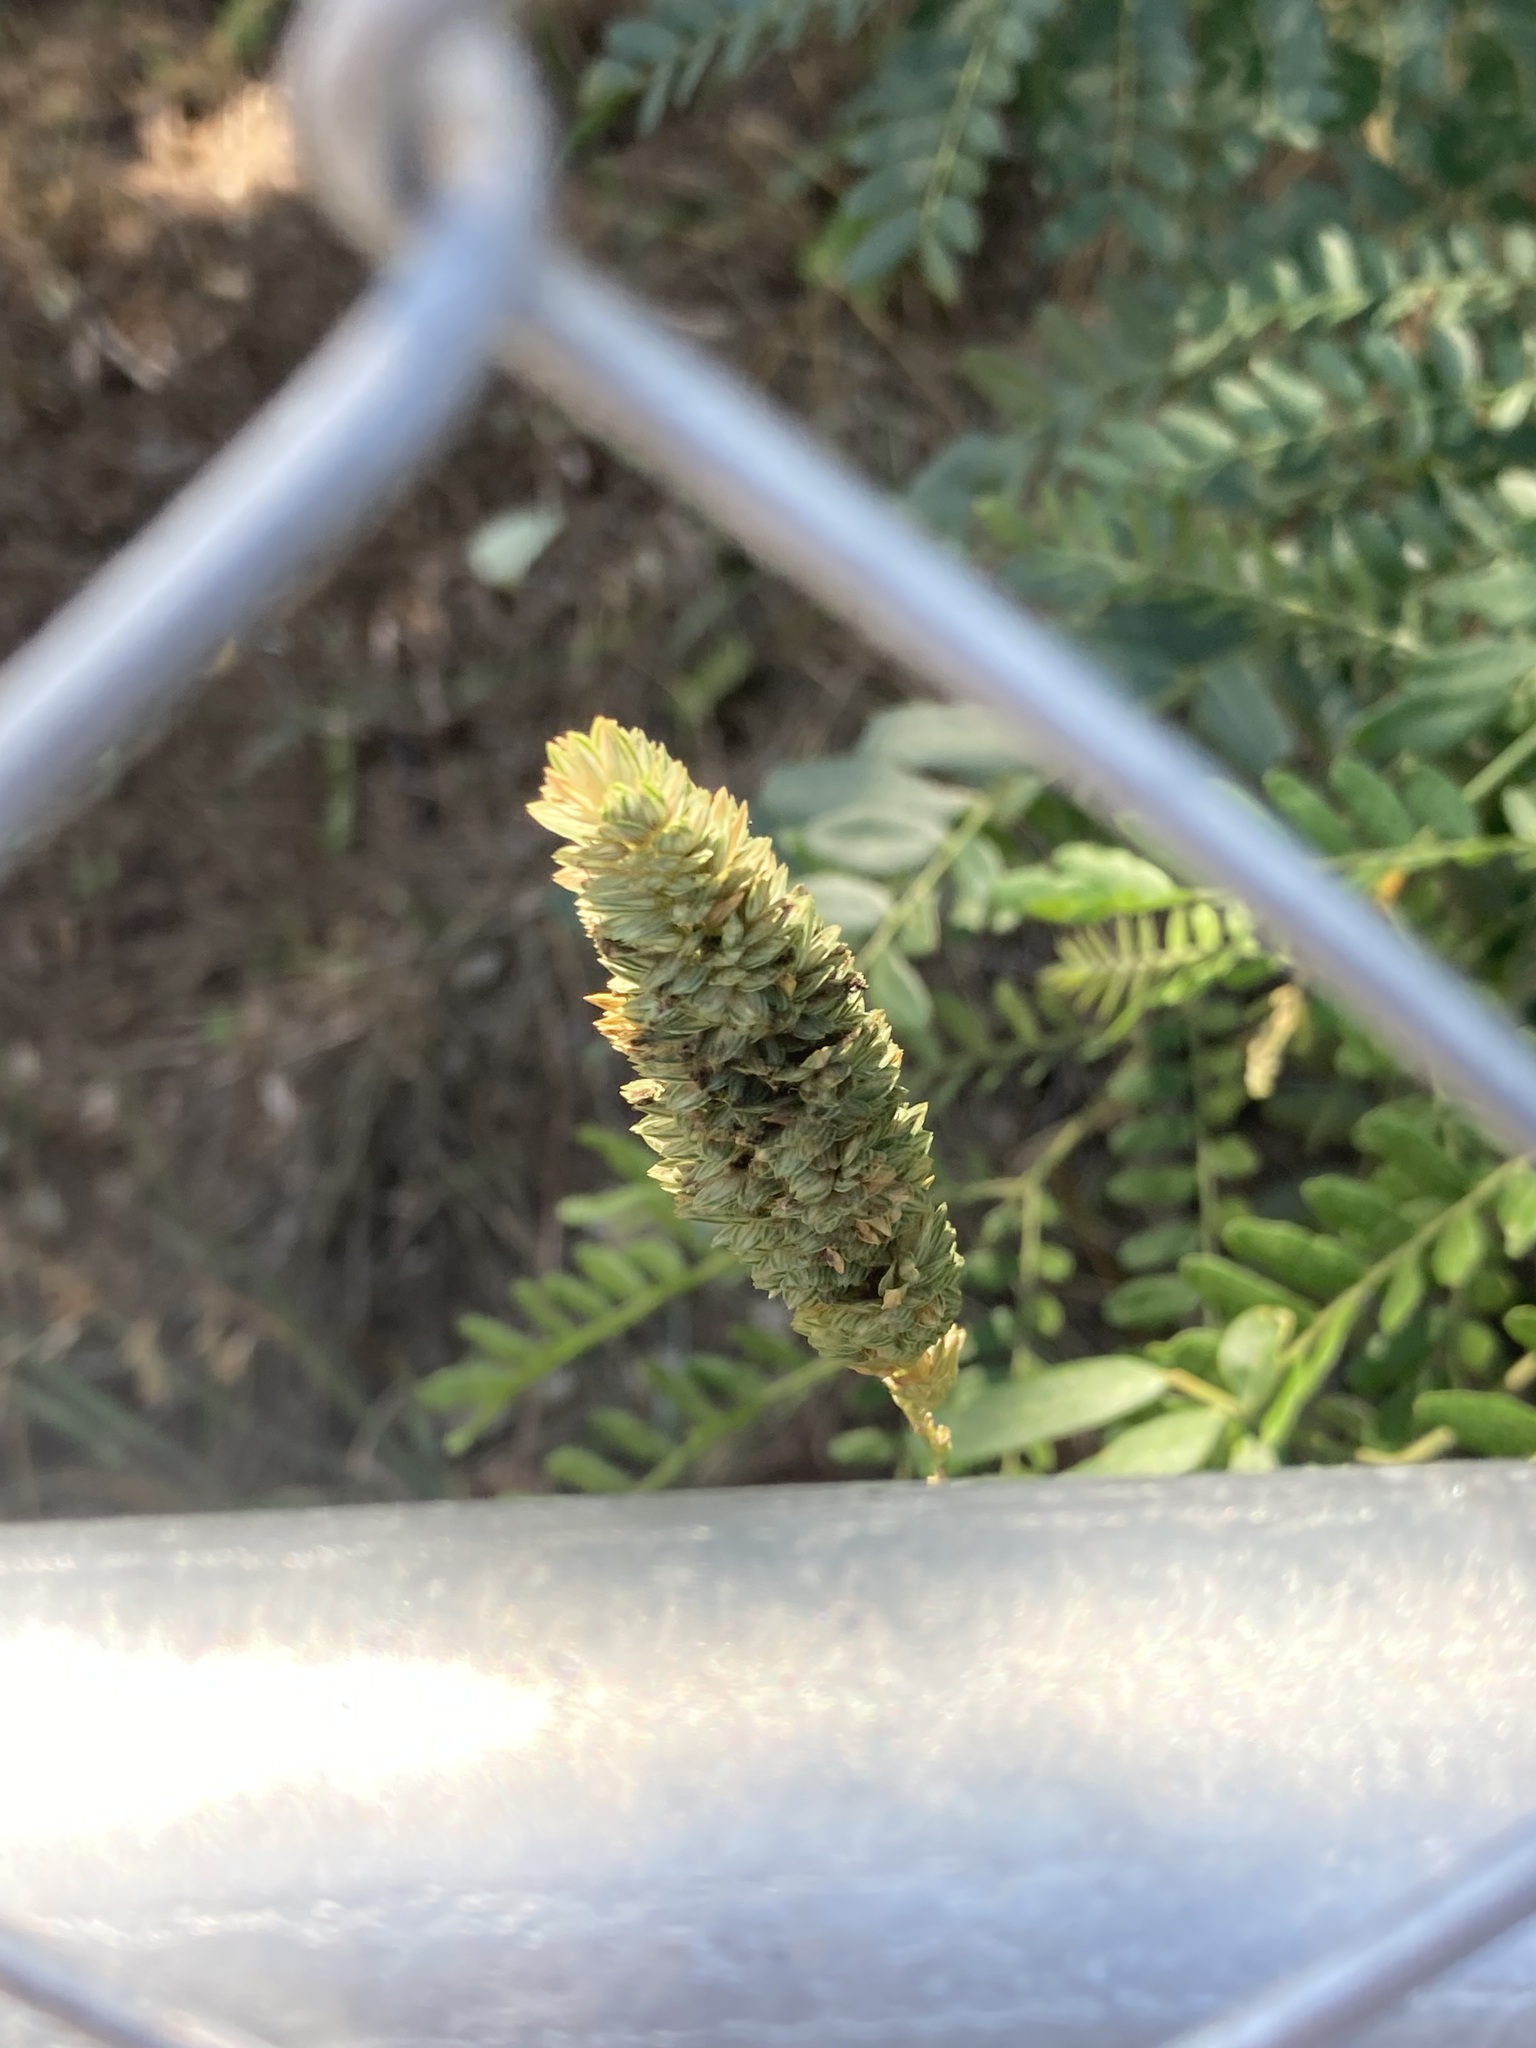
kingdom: Plantae
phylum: Tracheophyta
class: Liliopsida
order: Poales
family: Poaceae
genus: Phalaris
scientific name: Phalaris aquatica
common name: Bulbous canary-grass
